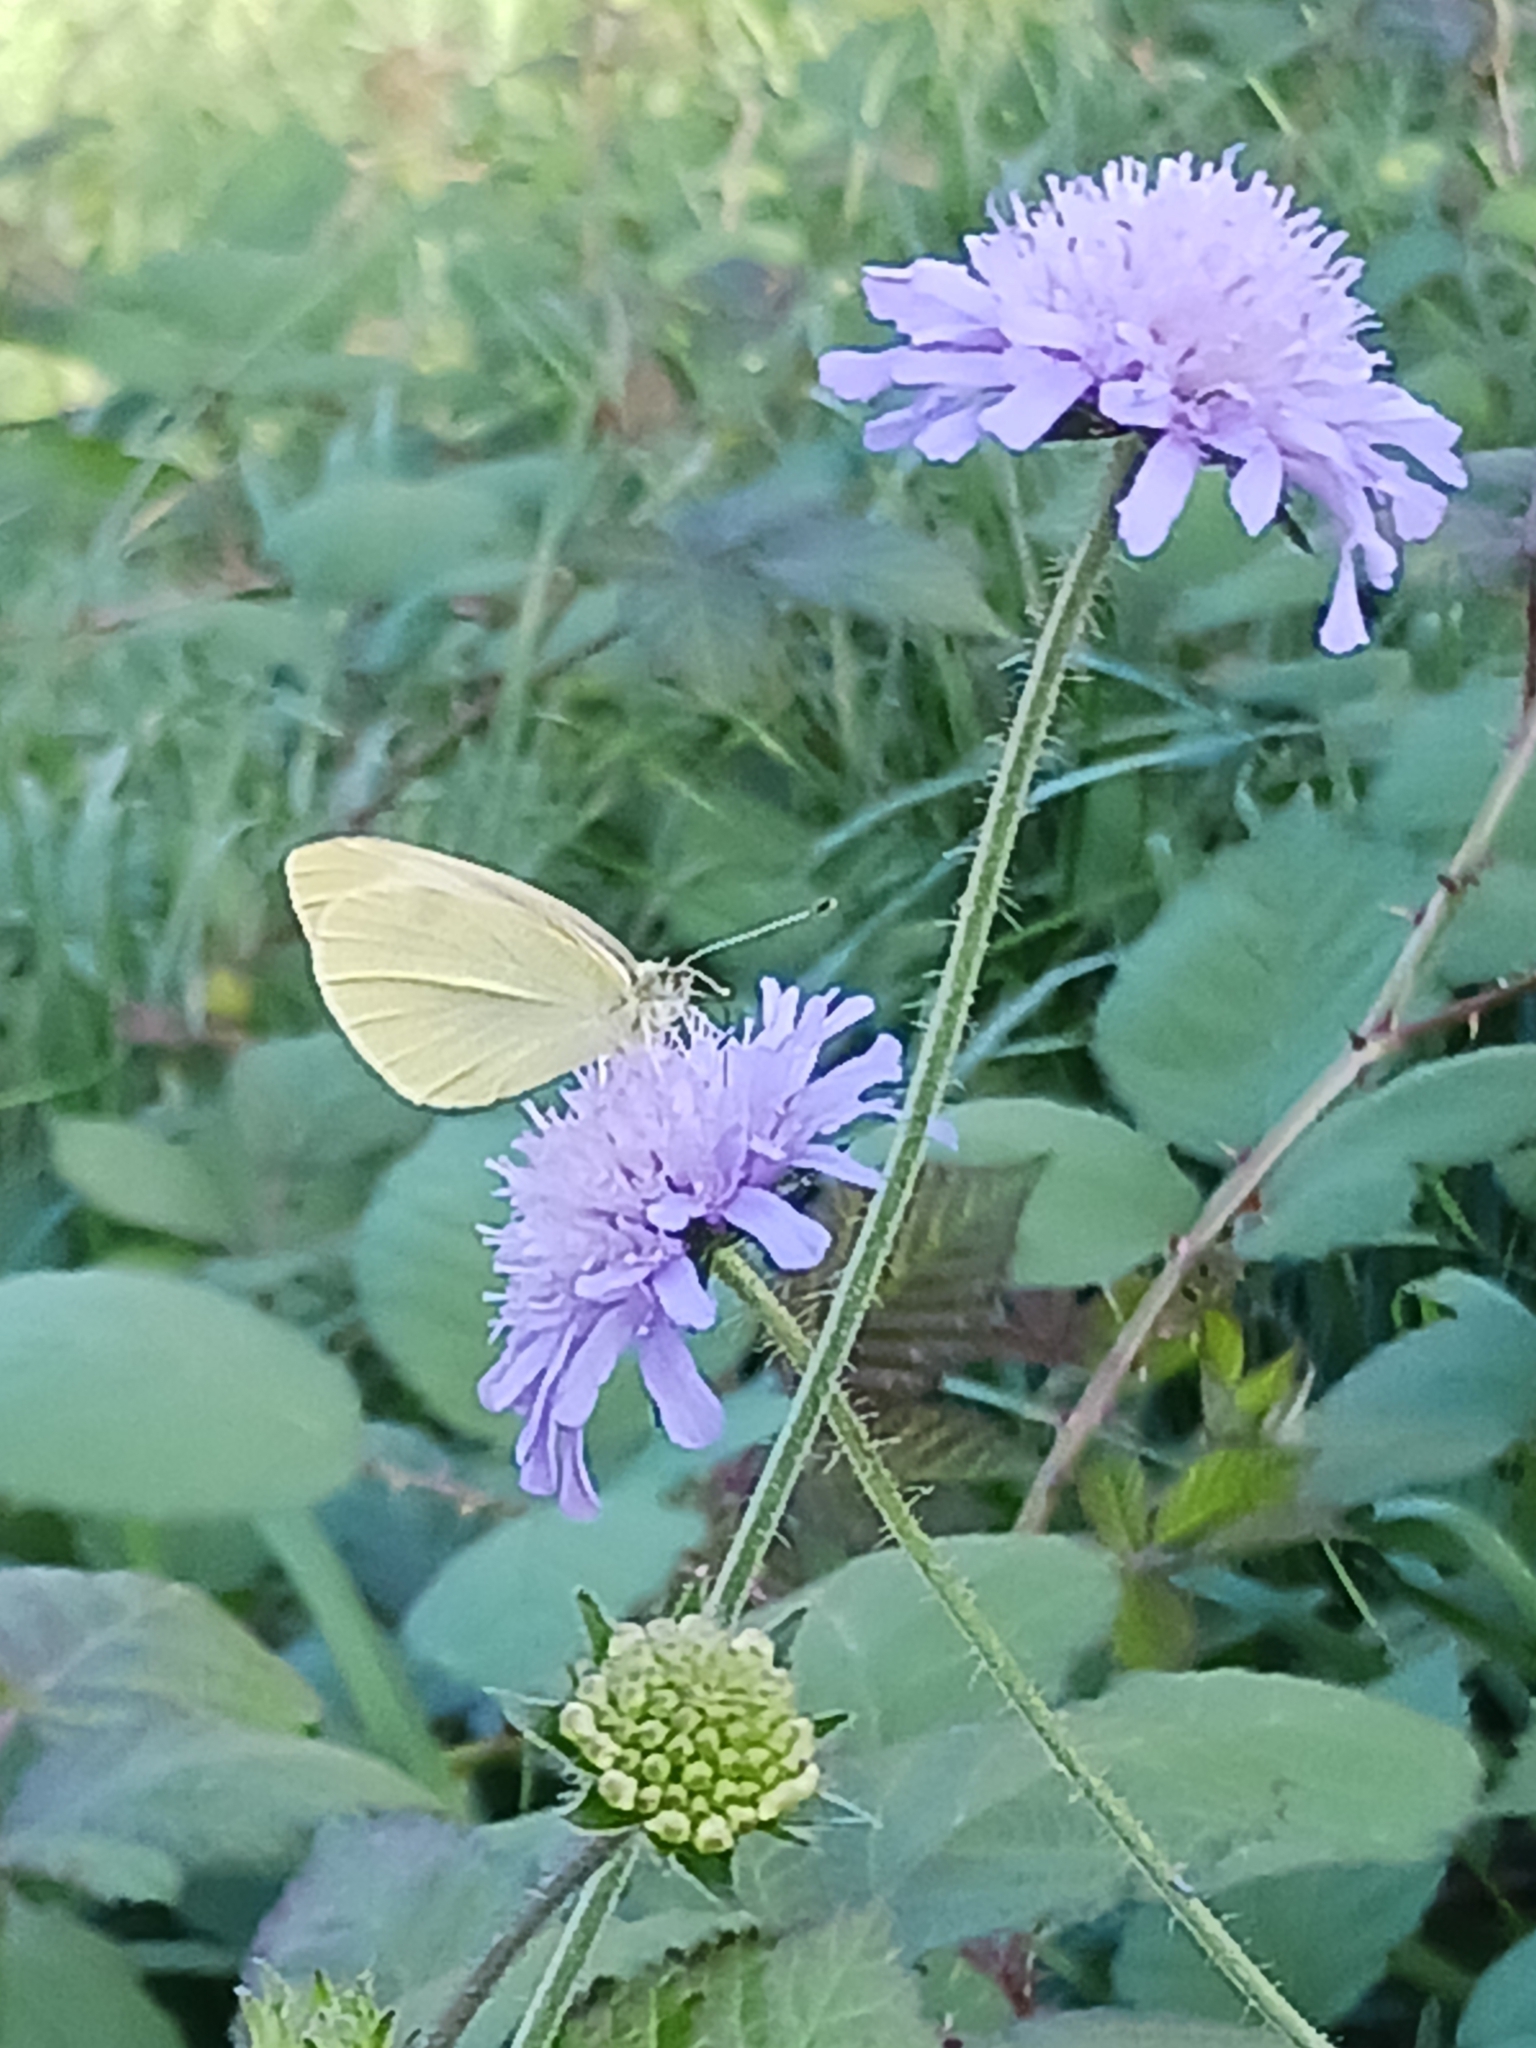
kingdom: Animalia
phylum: Arthropoda
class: Insecta
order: Lepidoptera
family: Pieridae
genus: Pieris
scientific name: Pieris rapae
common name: Small white
